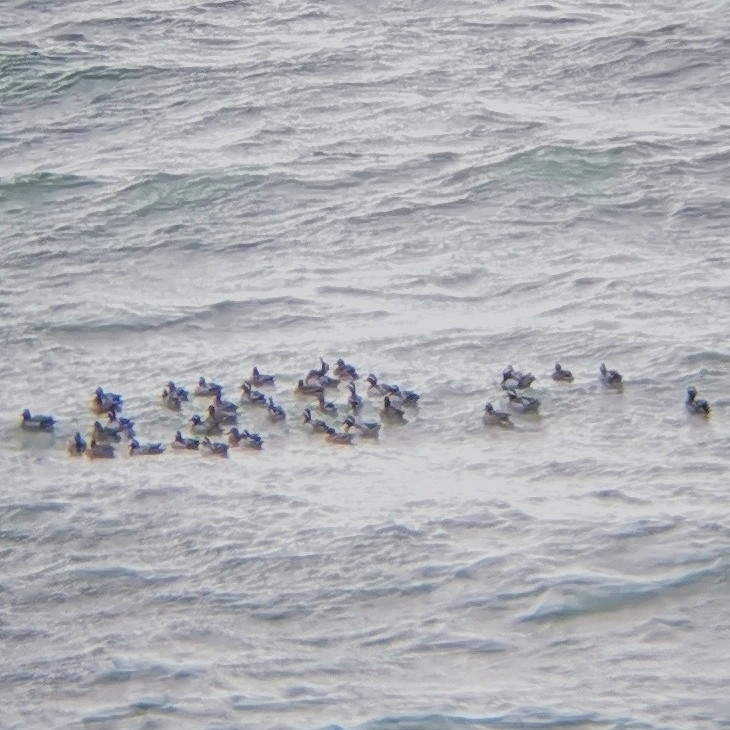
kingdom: Animalia
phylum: Chordata
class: Aves
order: Anseriformes
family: Anatidae
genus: Spatula
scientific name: Spatula querquedula
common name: Garganey
